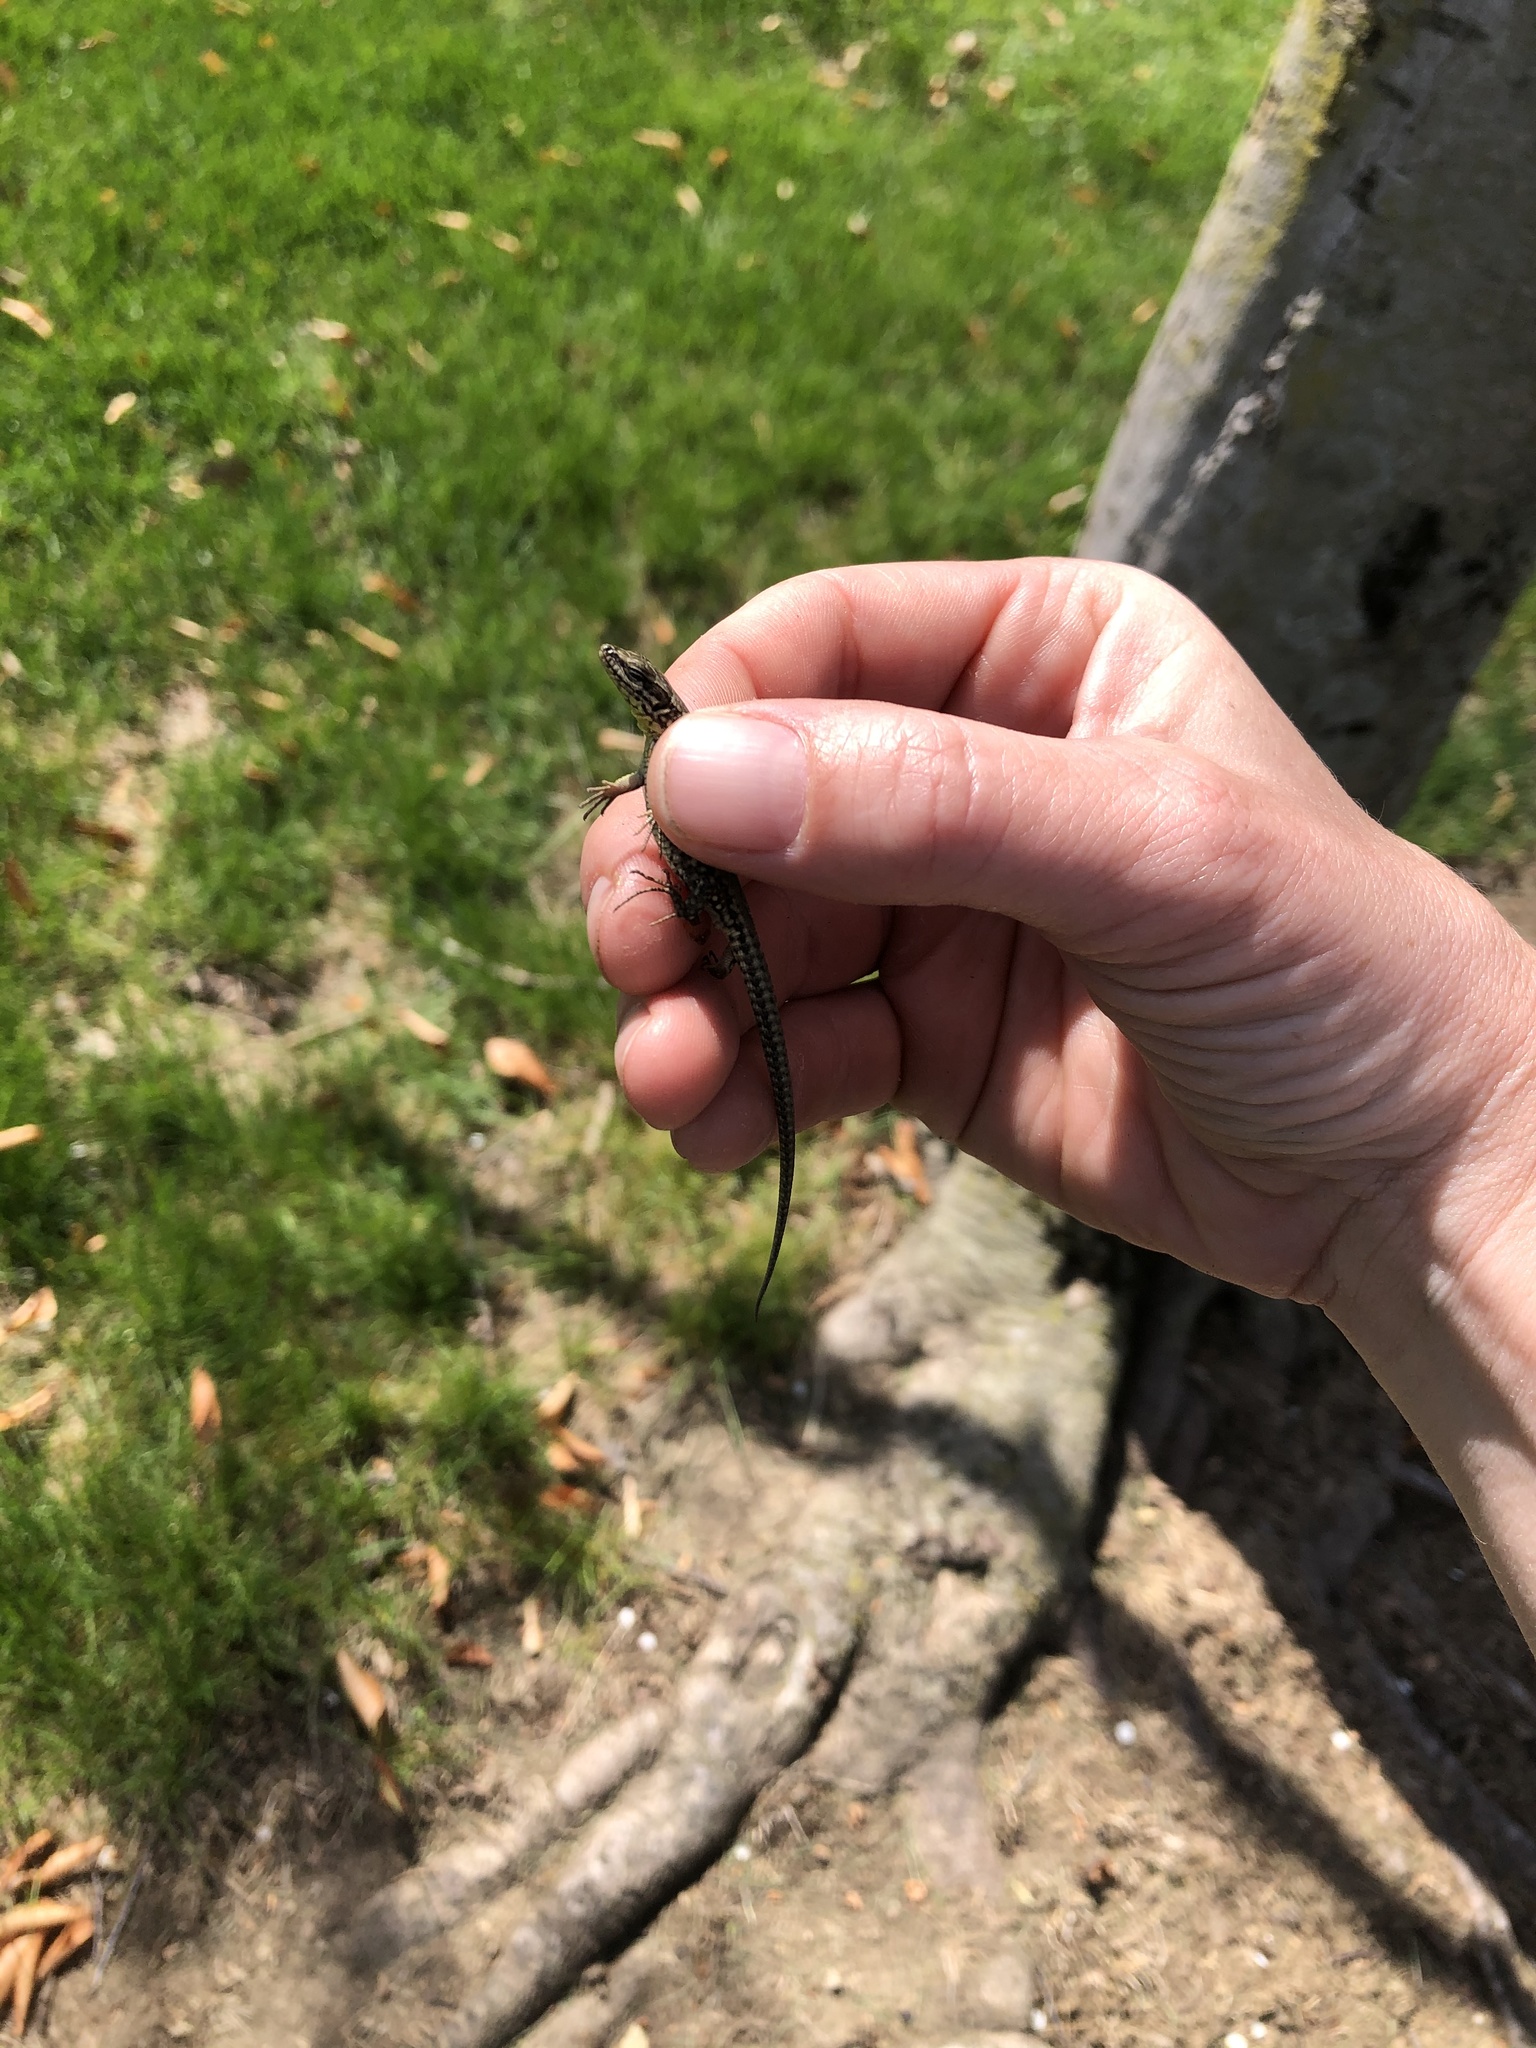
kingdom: Animalia
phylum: Chordata
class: Squamata
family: Lacertidae
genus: Podarcis
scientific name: Podarcis muralis
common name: Common wall lizard
